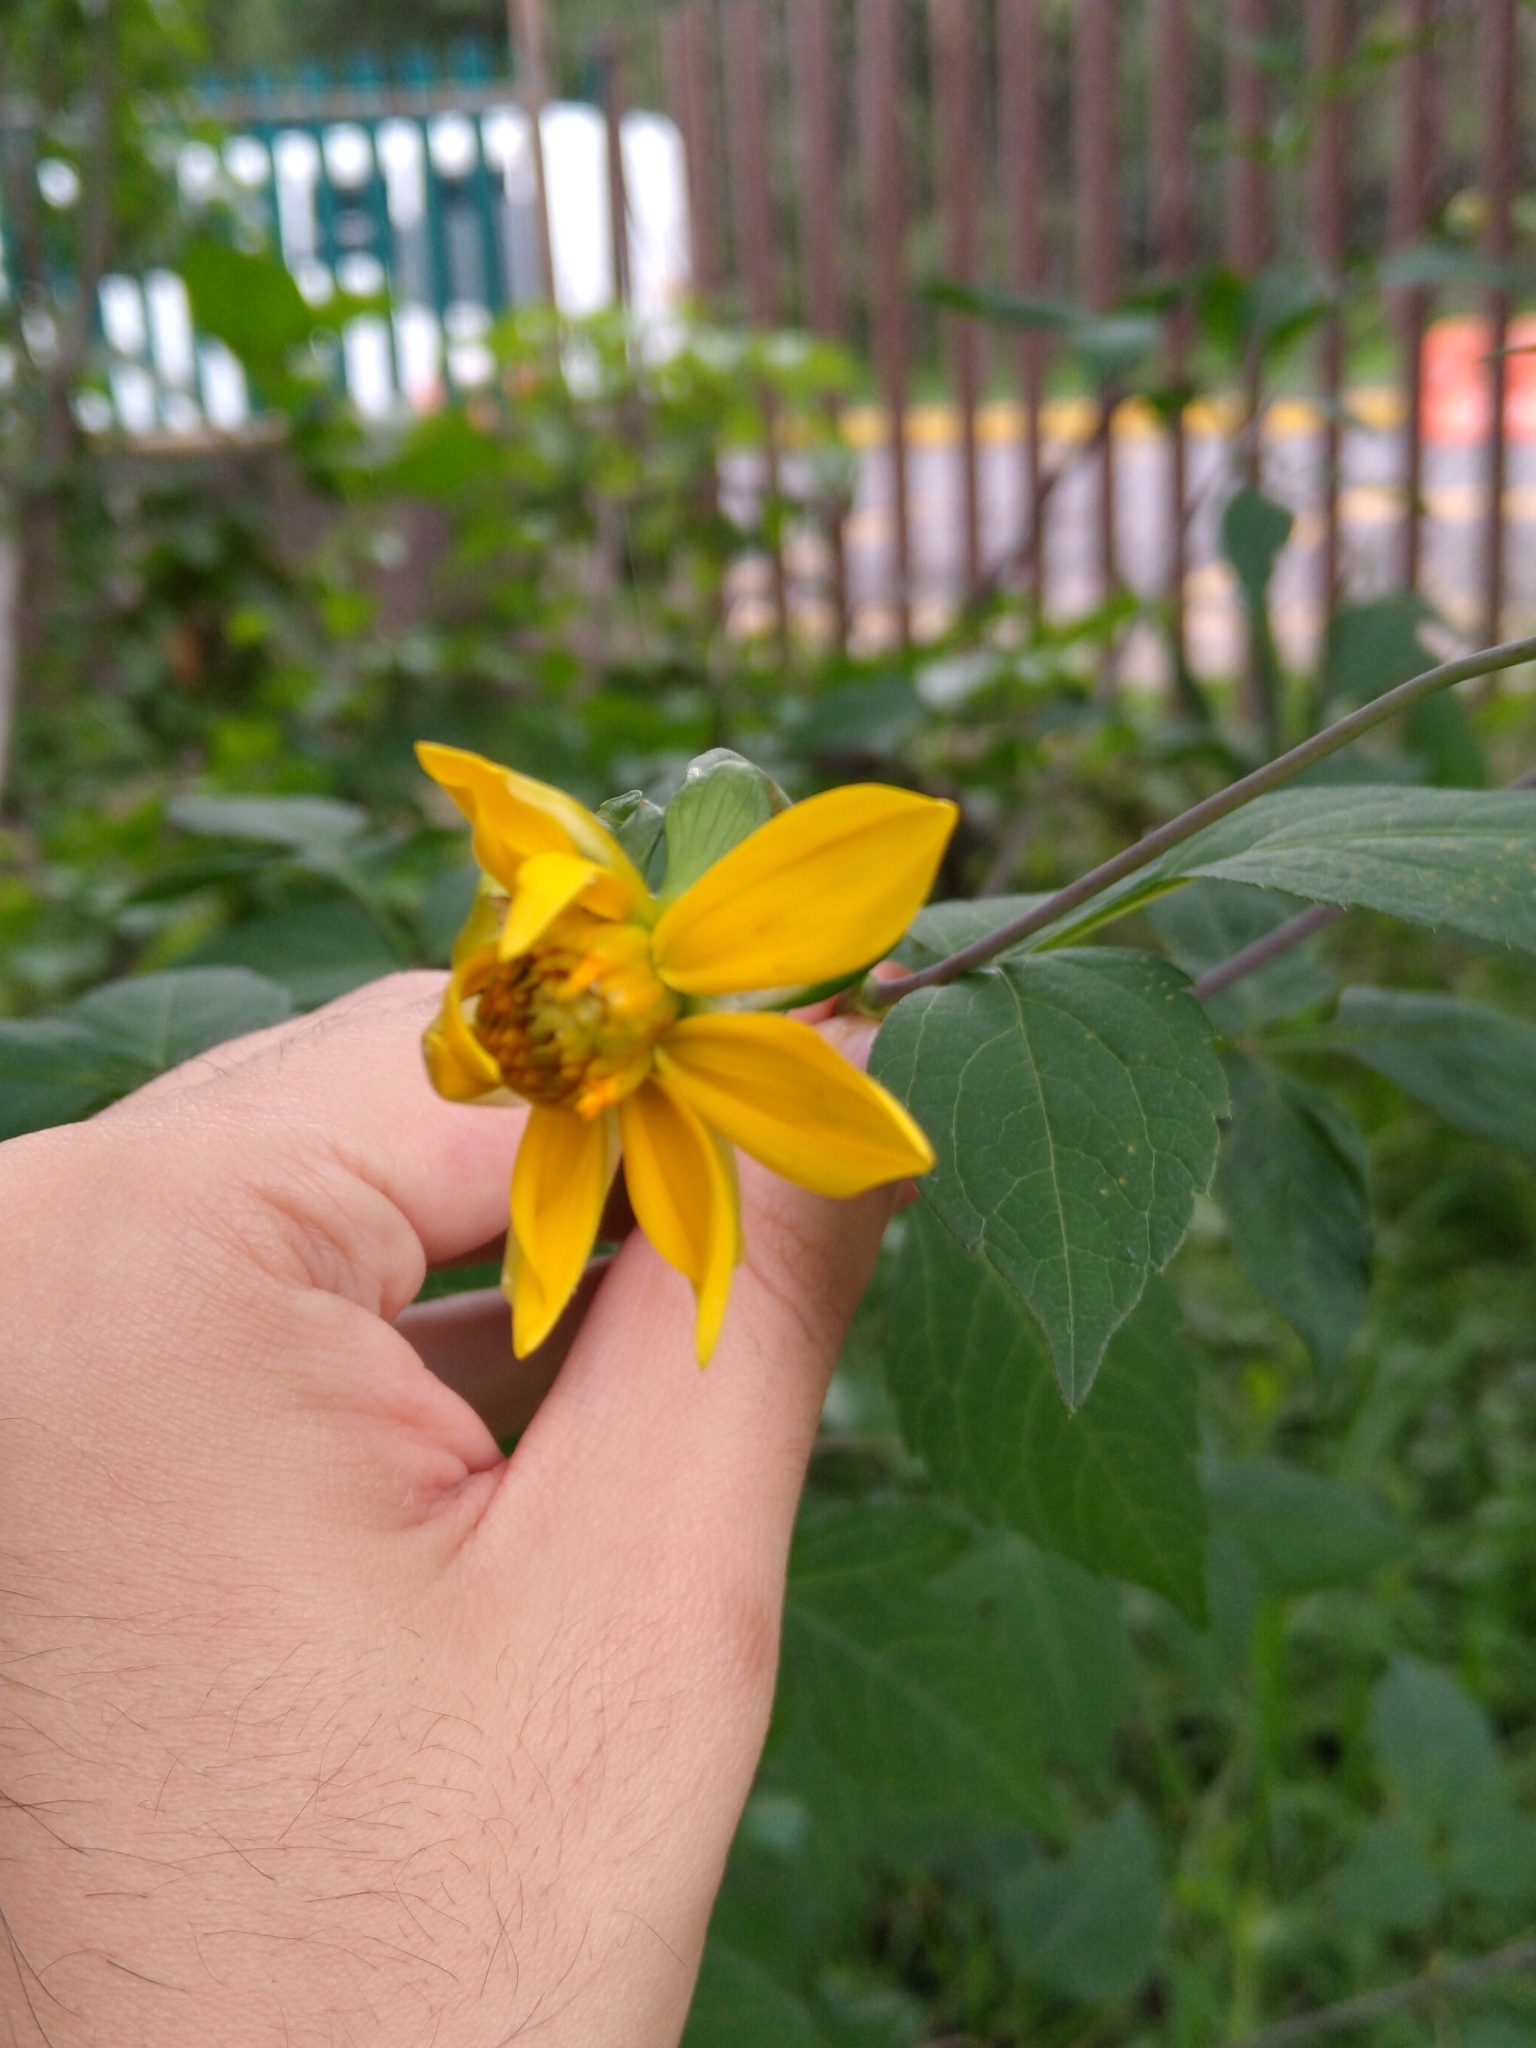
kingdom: Plantae
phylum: Tracheophyta
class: Magnoliopsida
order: Asterales
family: Asteraceae
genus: Dahlia
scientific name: Dahlia coccinea
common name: Red dahlia
